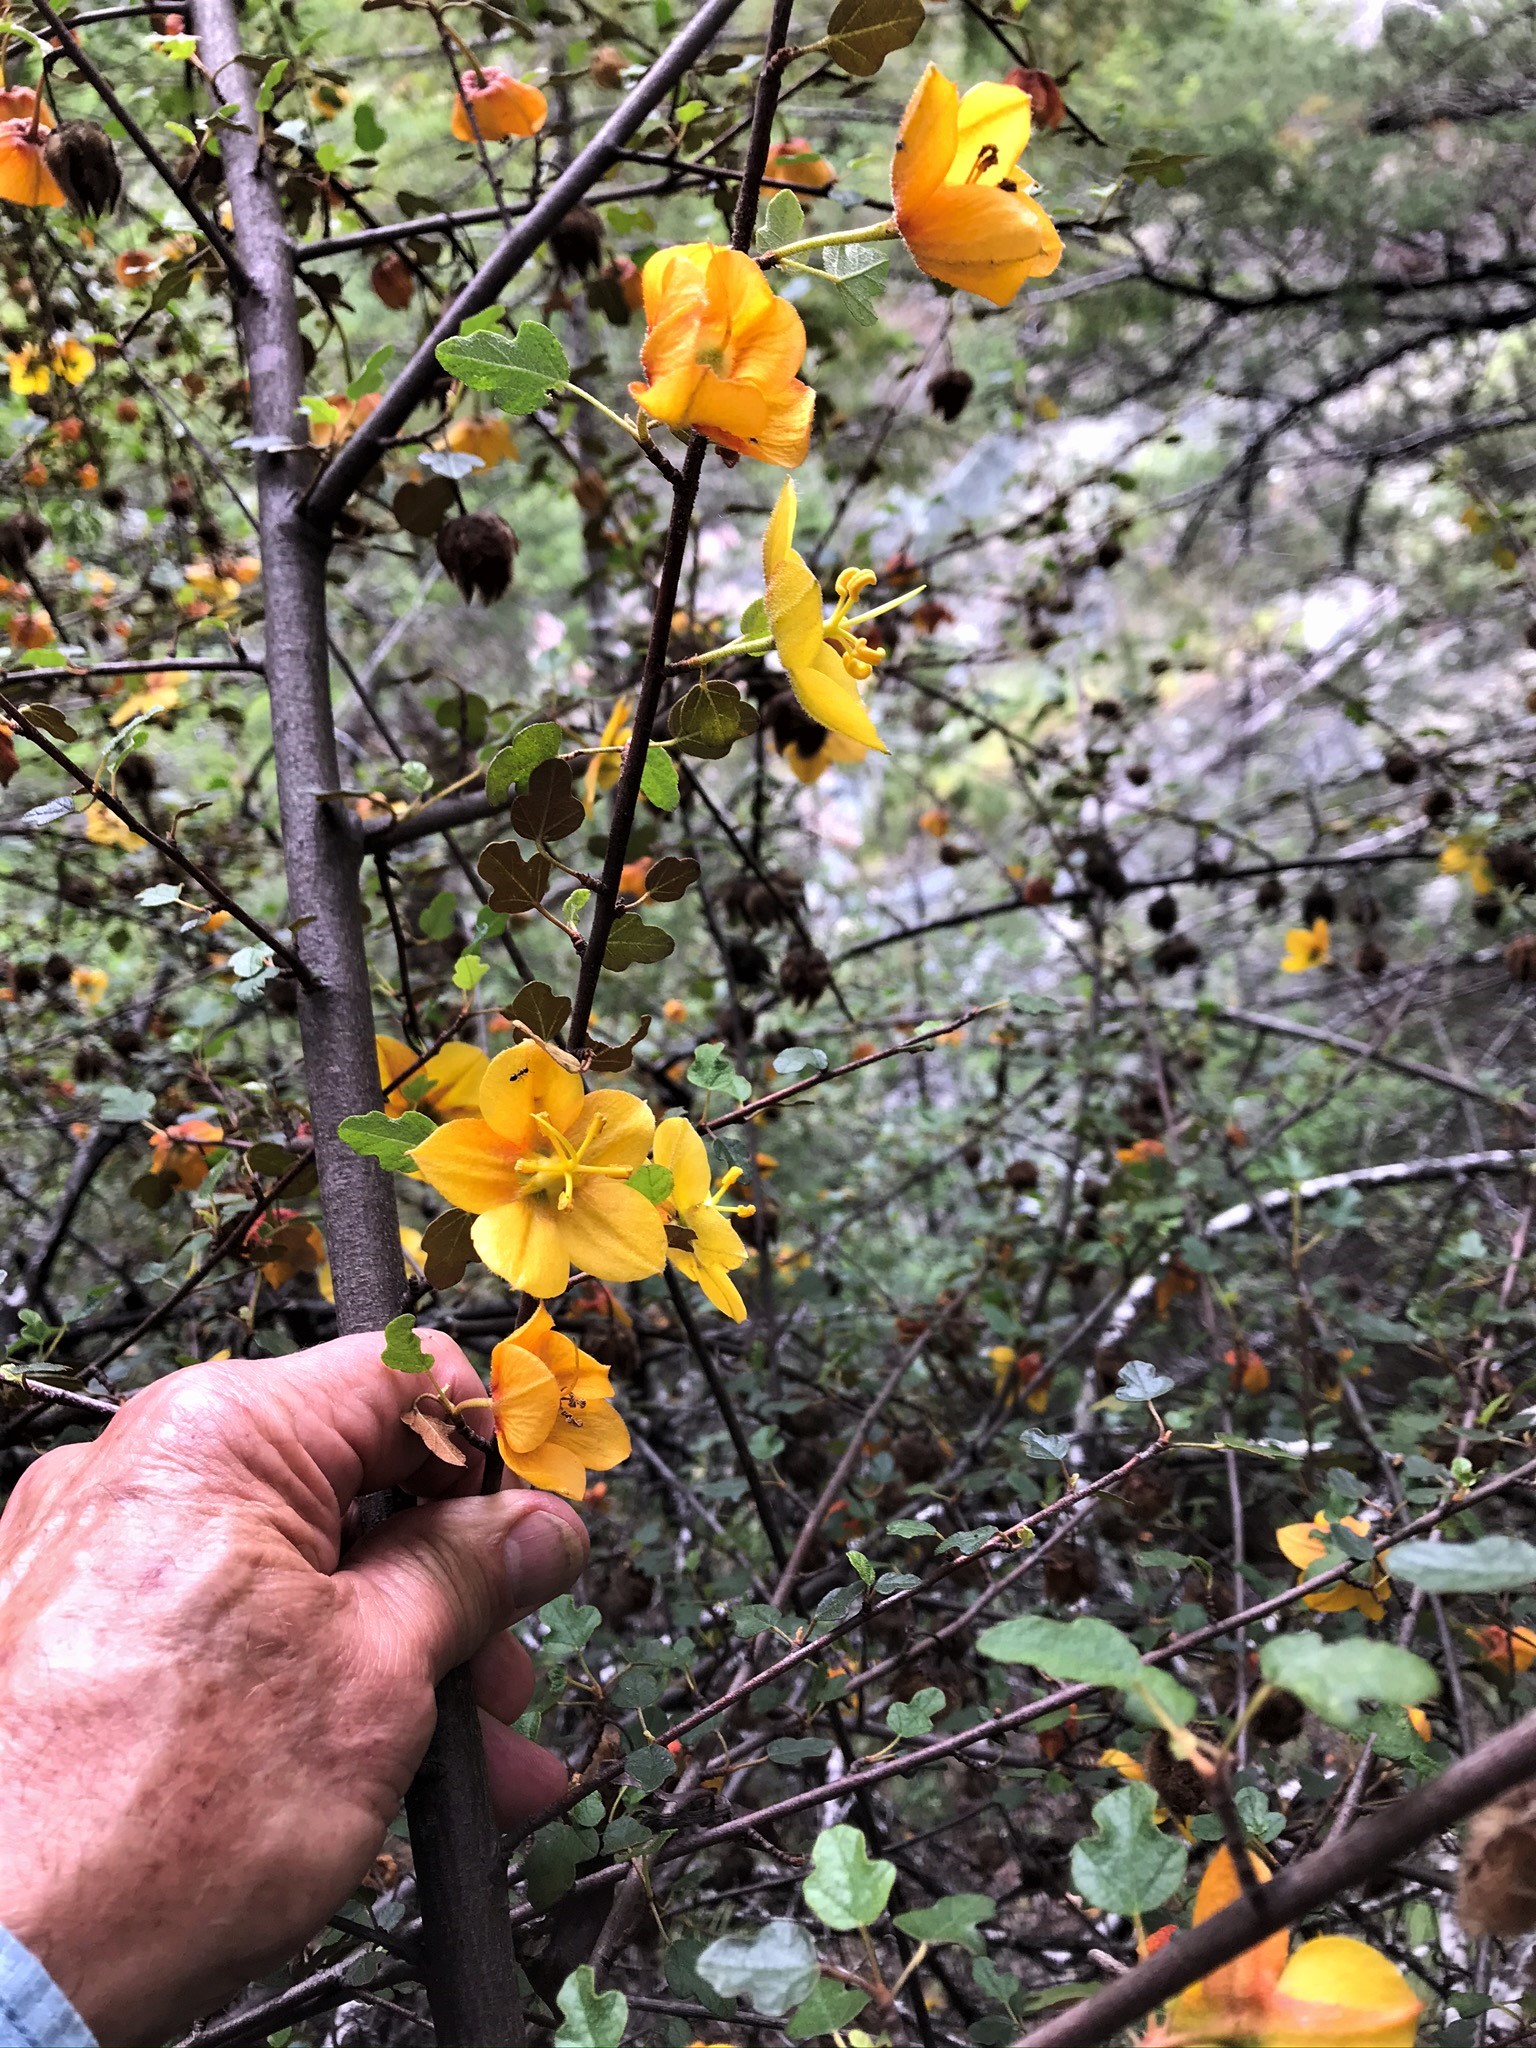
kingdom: Plantae
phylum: Tracheophyta
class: Magnoliopsida
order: Malvales
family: Malvaceae
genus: Fremontodendron
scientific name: Fremontodendron californicum
